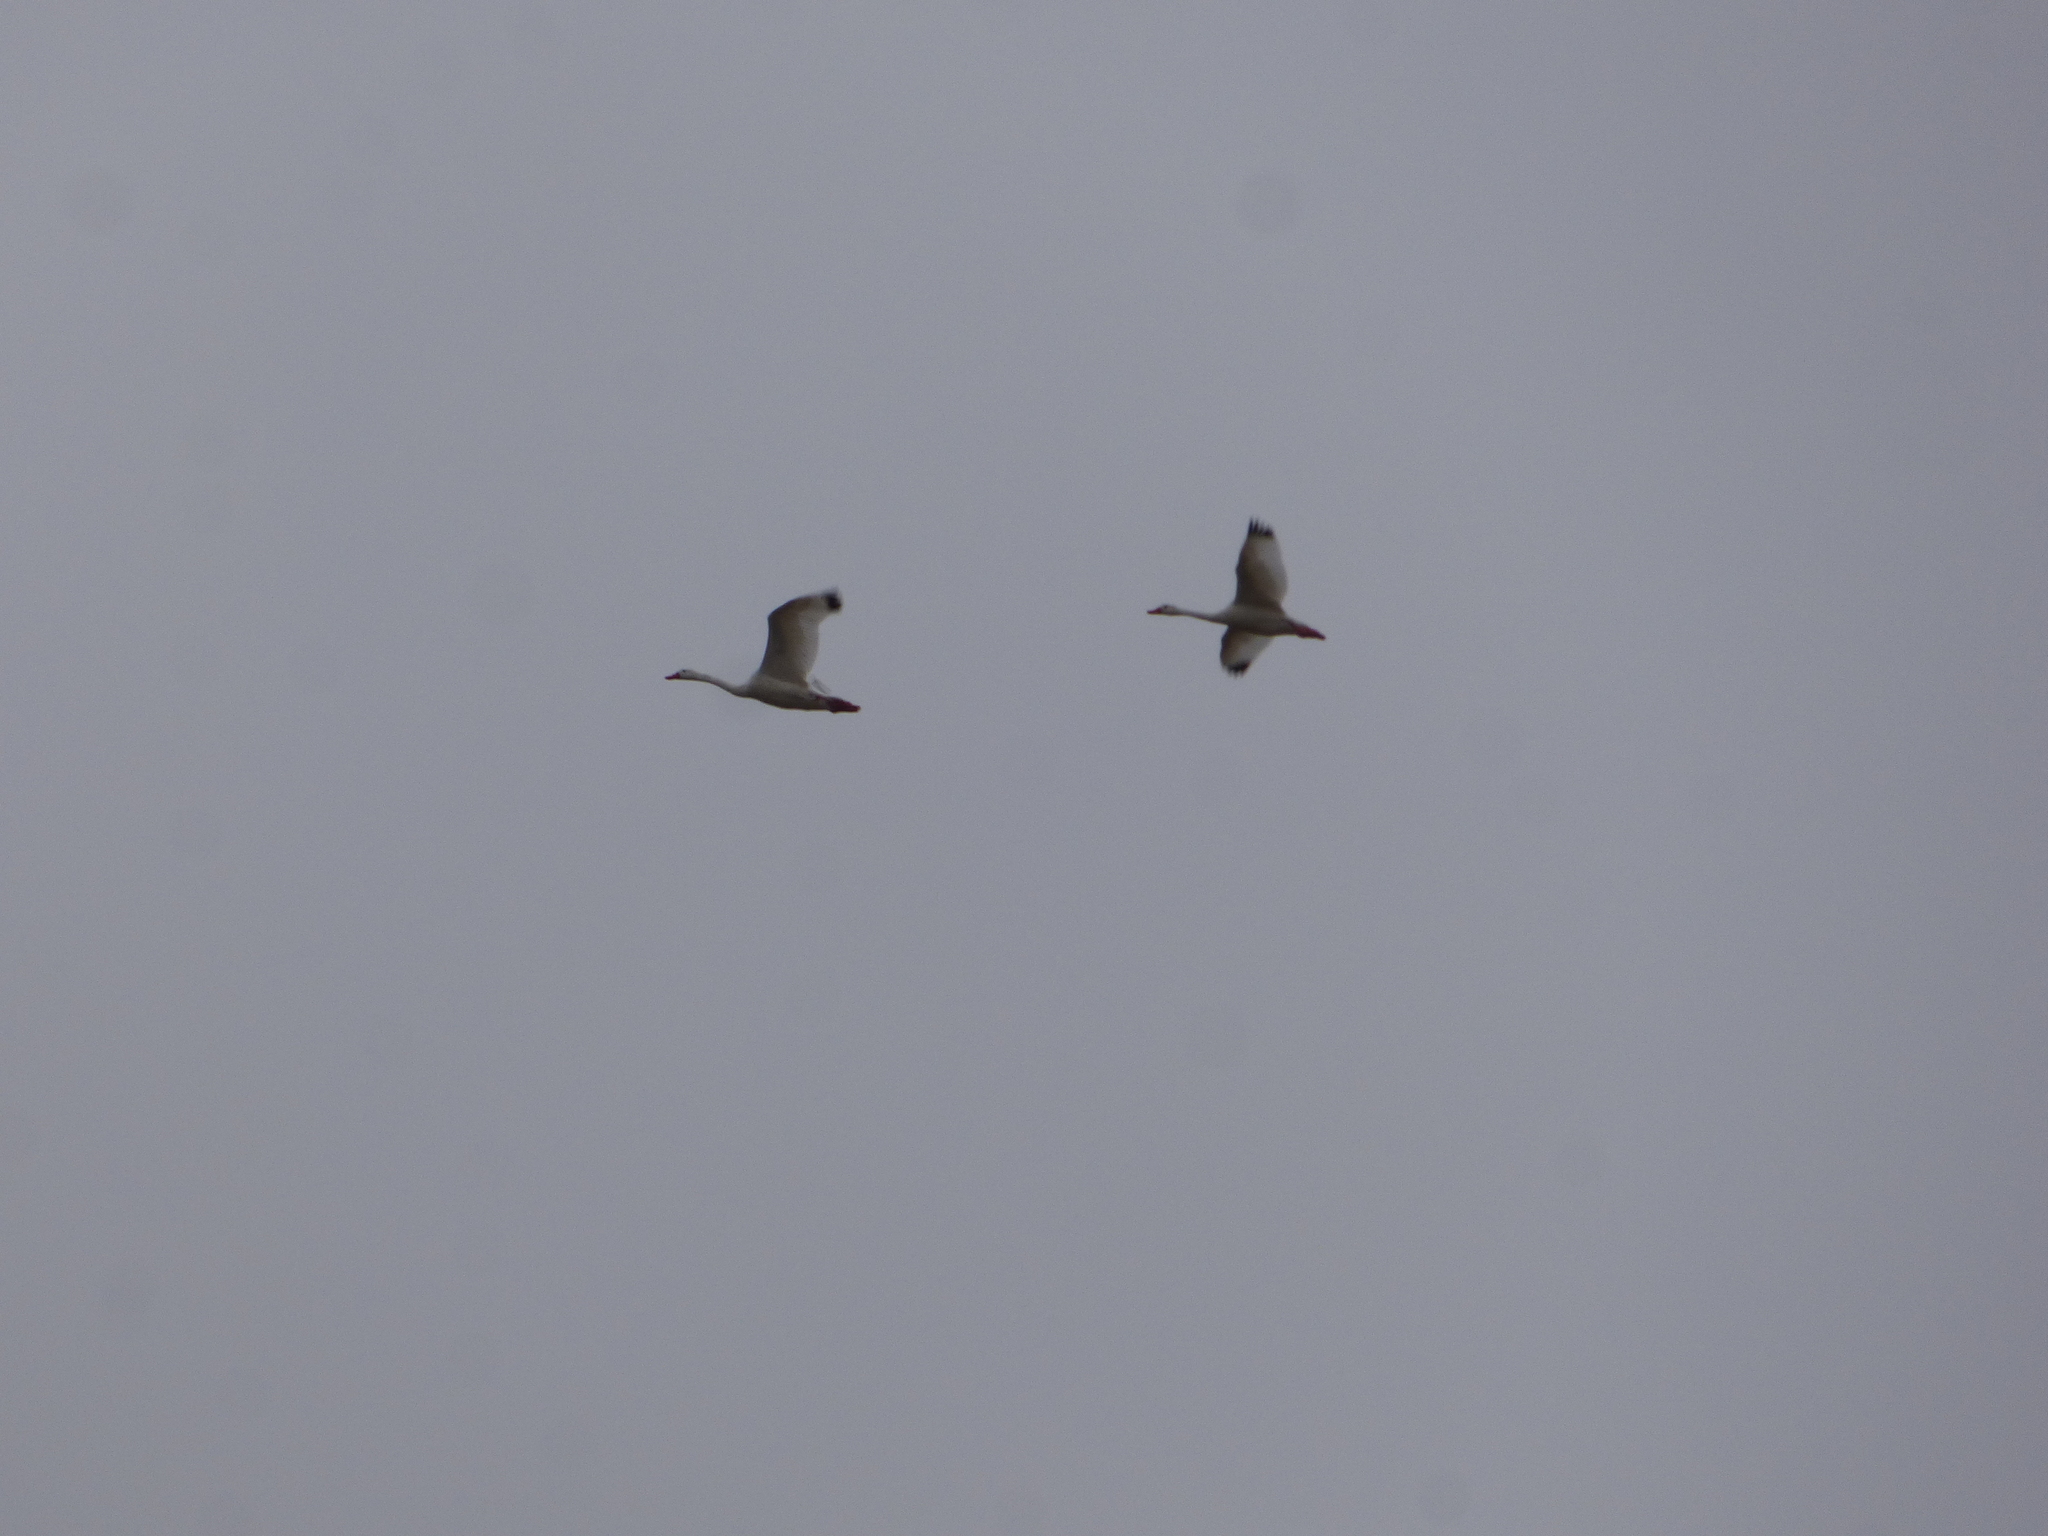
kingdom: Animalia
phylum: Chordata
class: Aves
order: Anseriformes
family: Anatidae
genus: Coscoroba
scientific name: Coscoroba coscoroba
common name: Coscoroba swan
